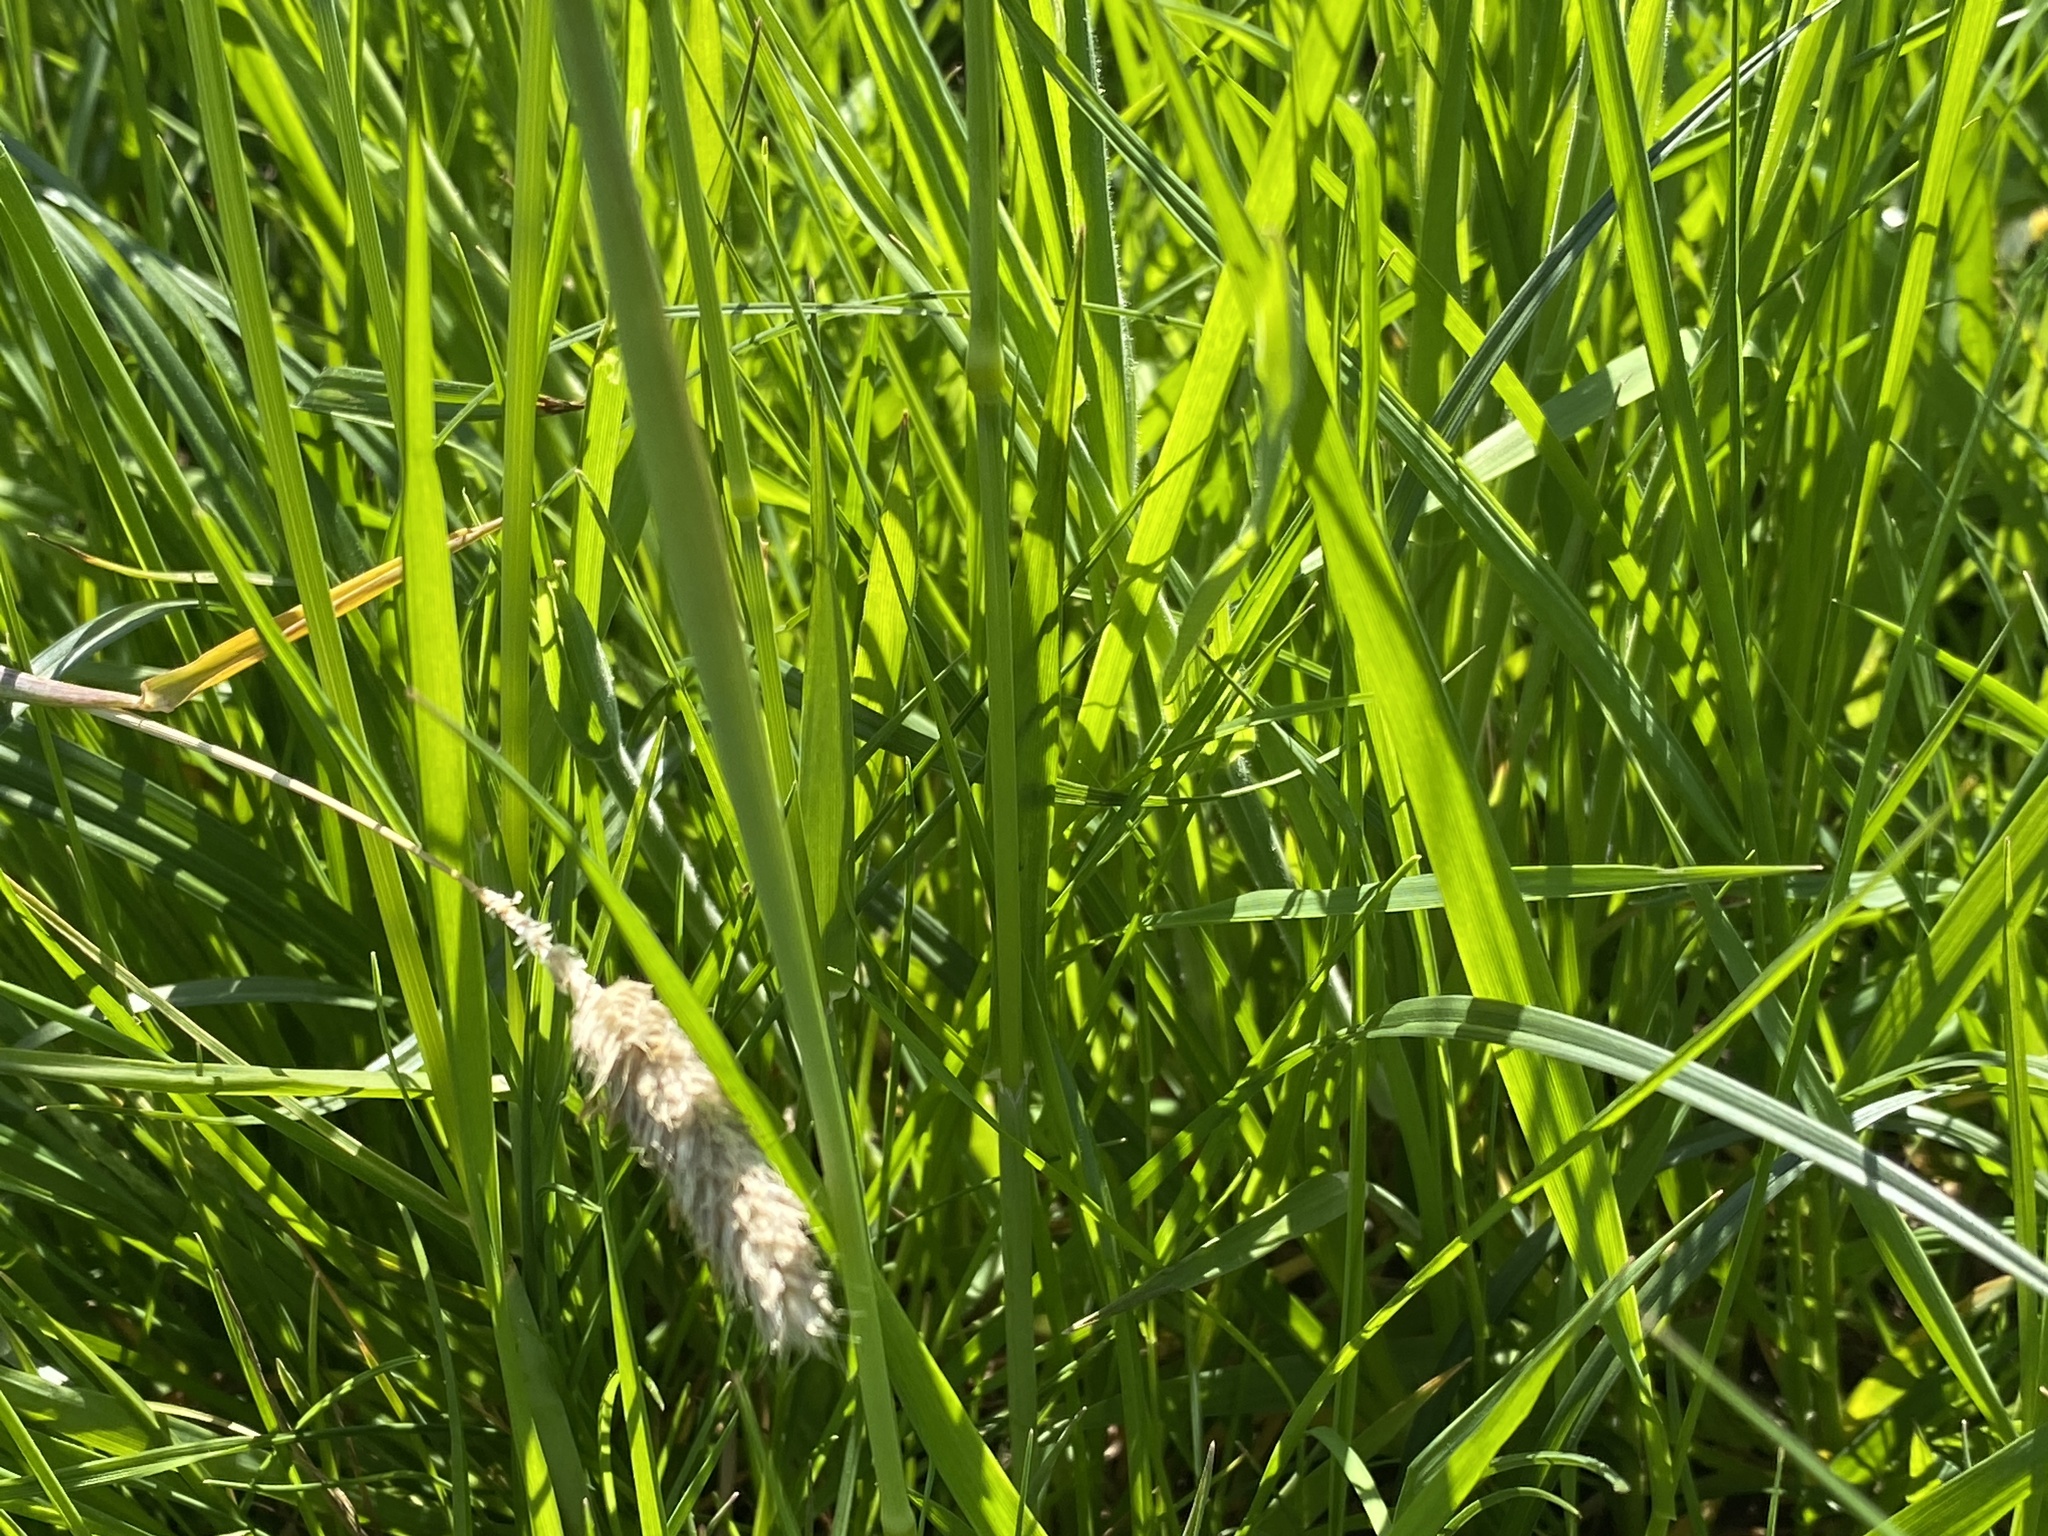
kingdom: Plantae
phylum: Tracheophyta
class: Liliopsida
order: Poales
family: Poaceae
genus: Alopecurus
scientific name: Alopecurus pratensis
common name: Meadow foxtail
